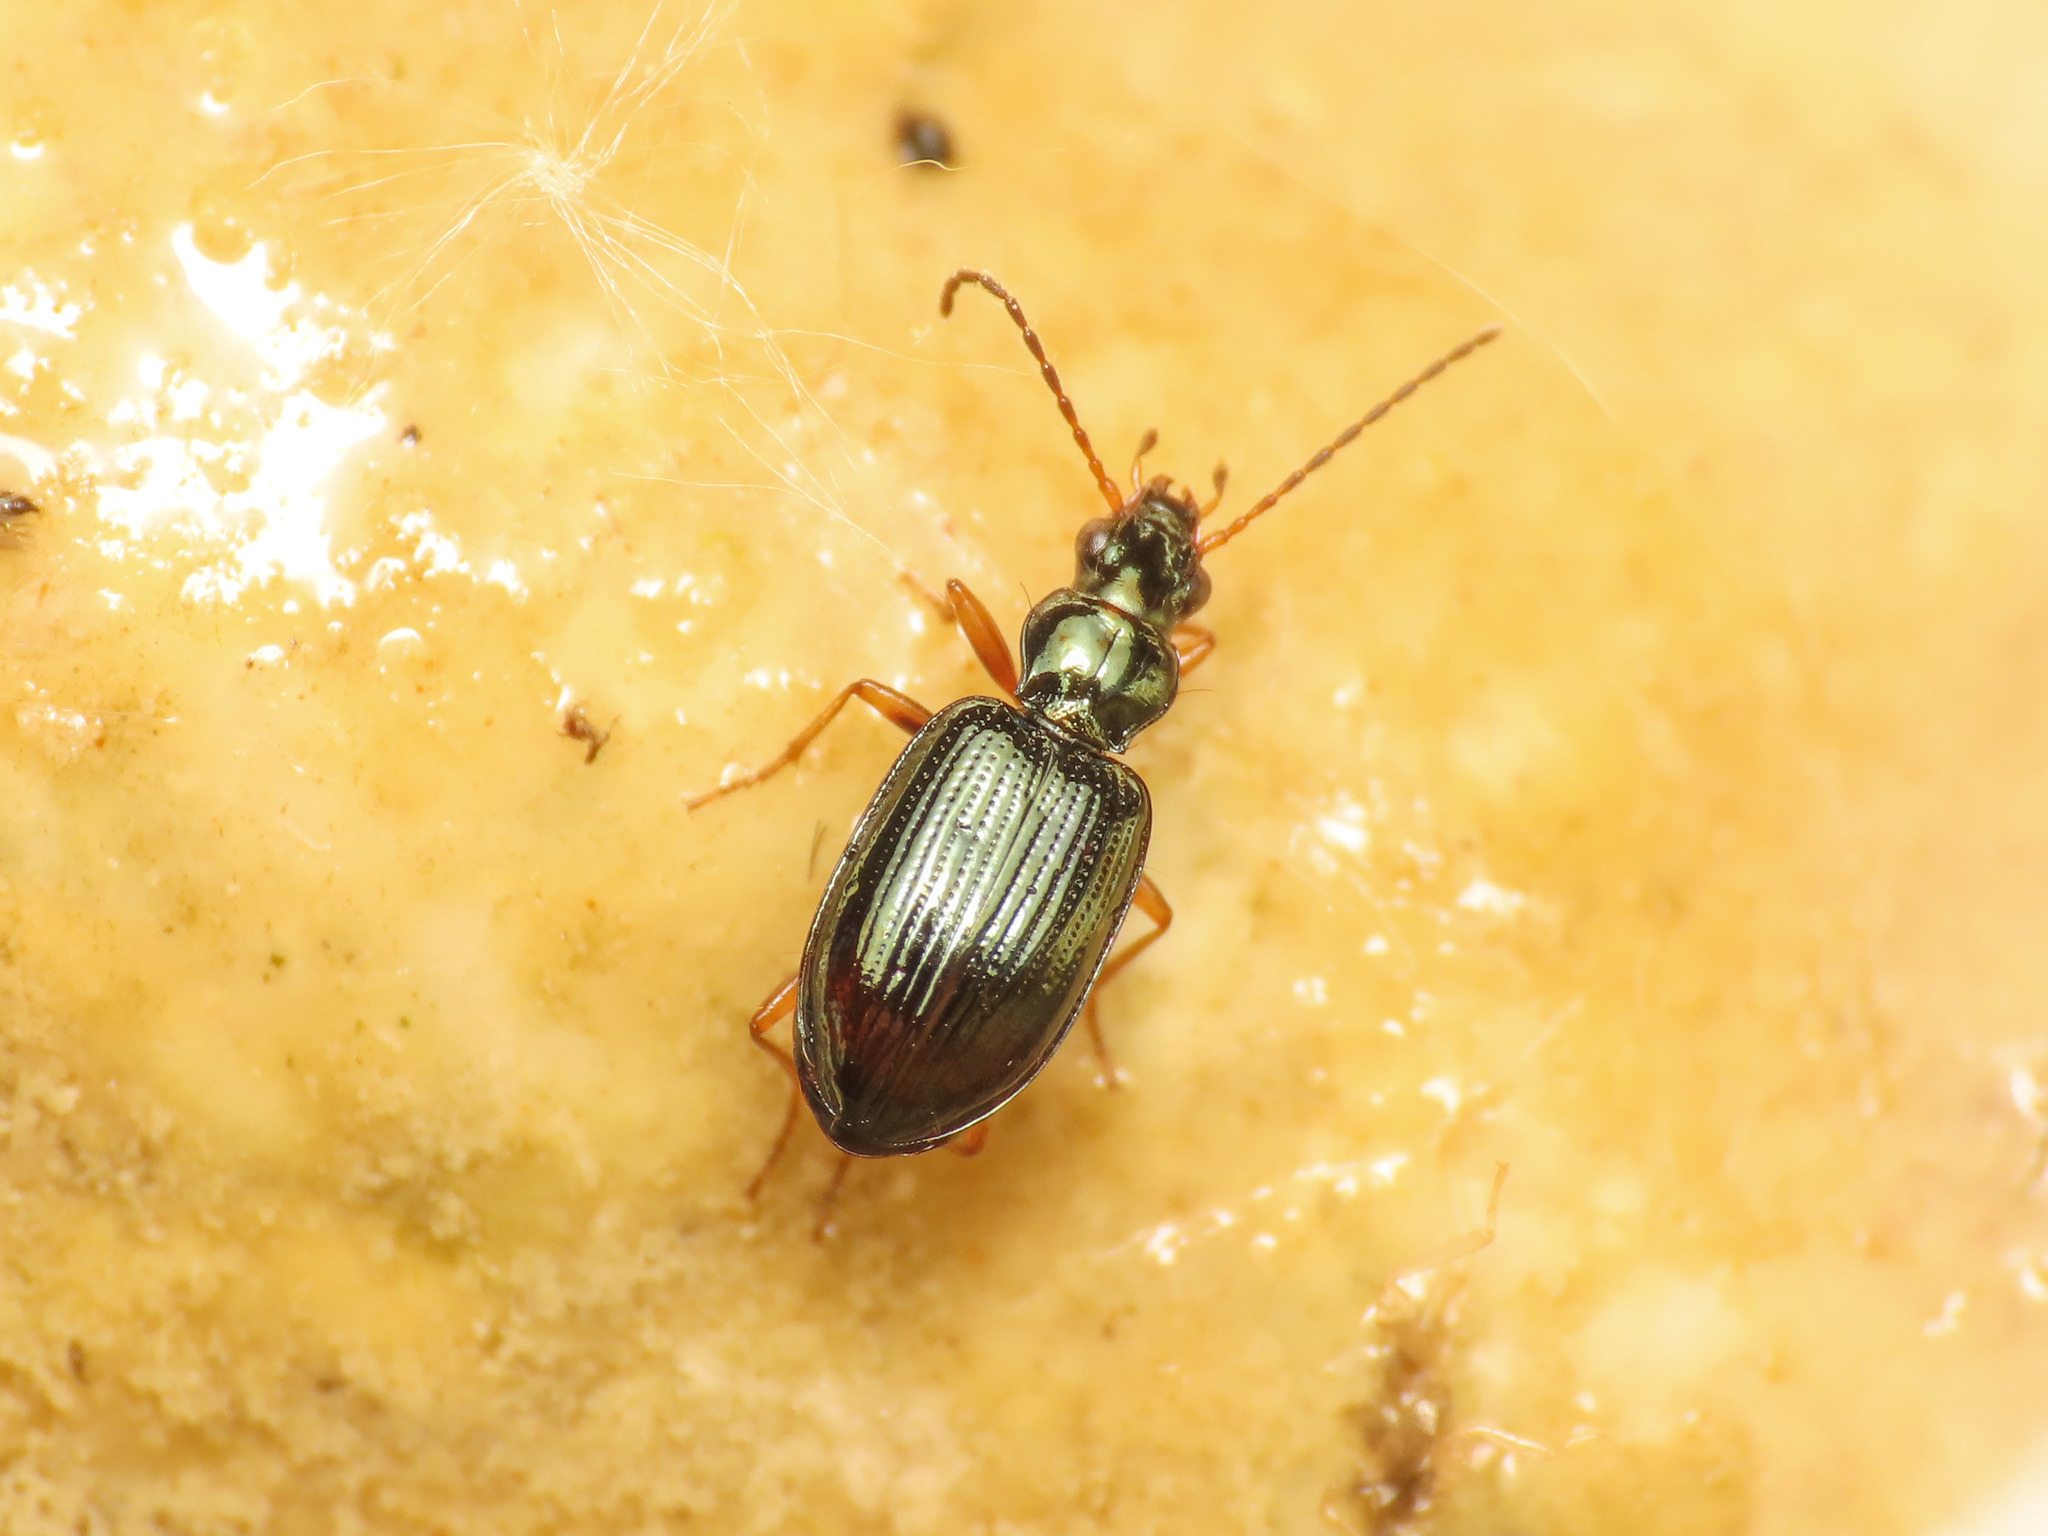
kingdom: Animalia
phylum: Arthropoda
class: Insecta
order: Coleoptera
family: Carabidae
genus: Bembidion
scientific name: Bembidion latinum
